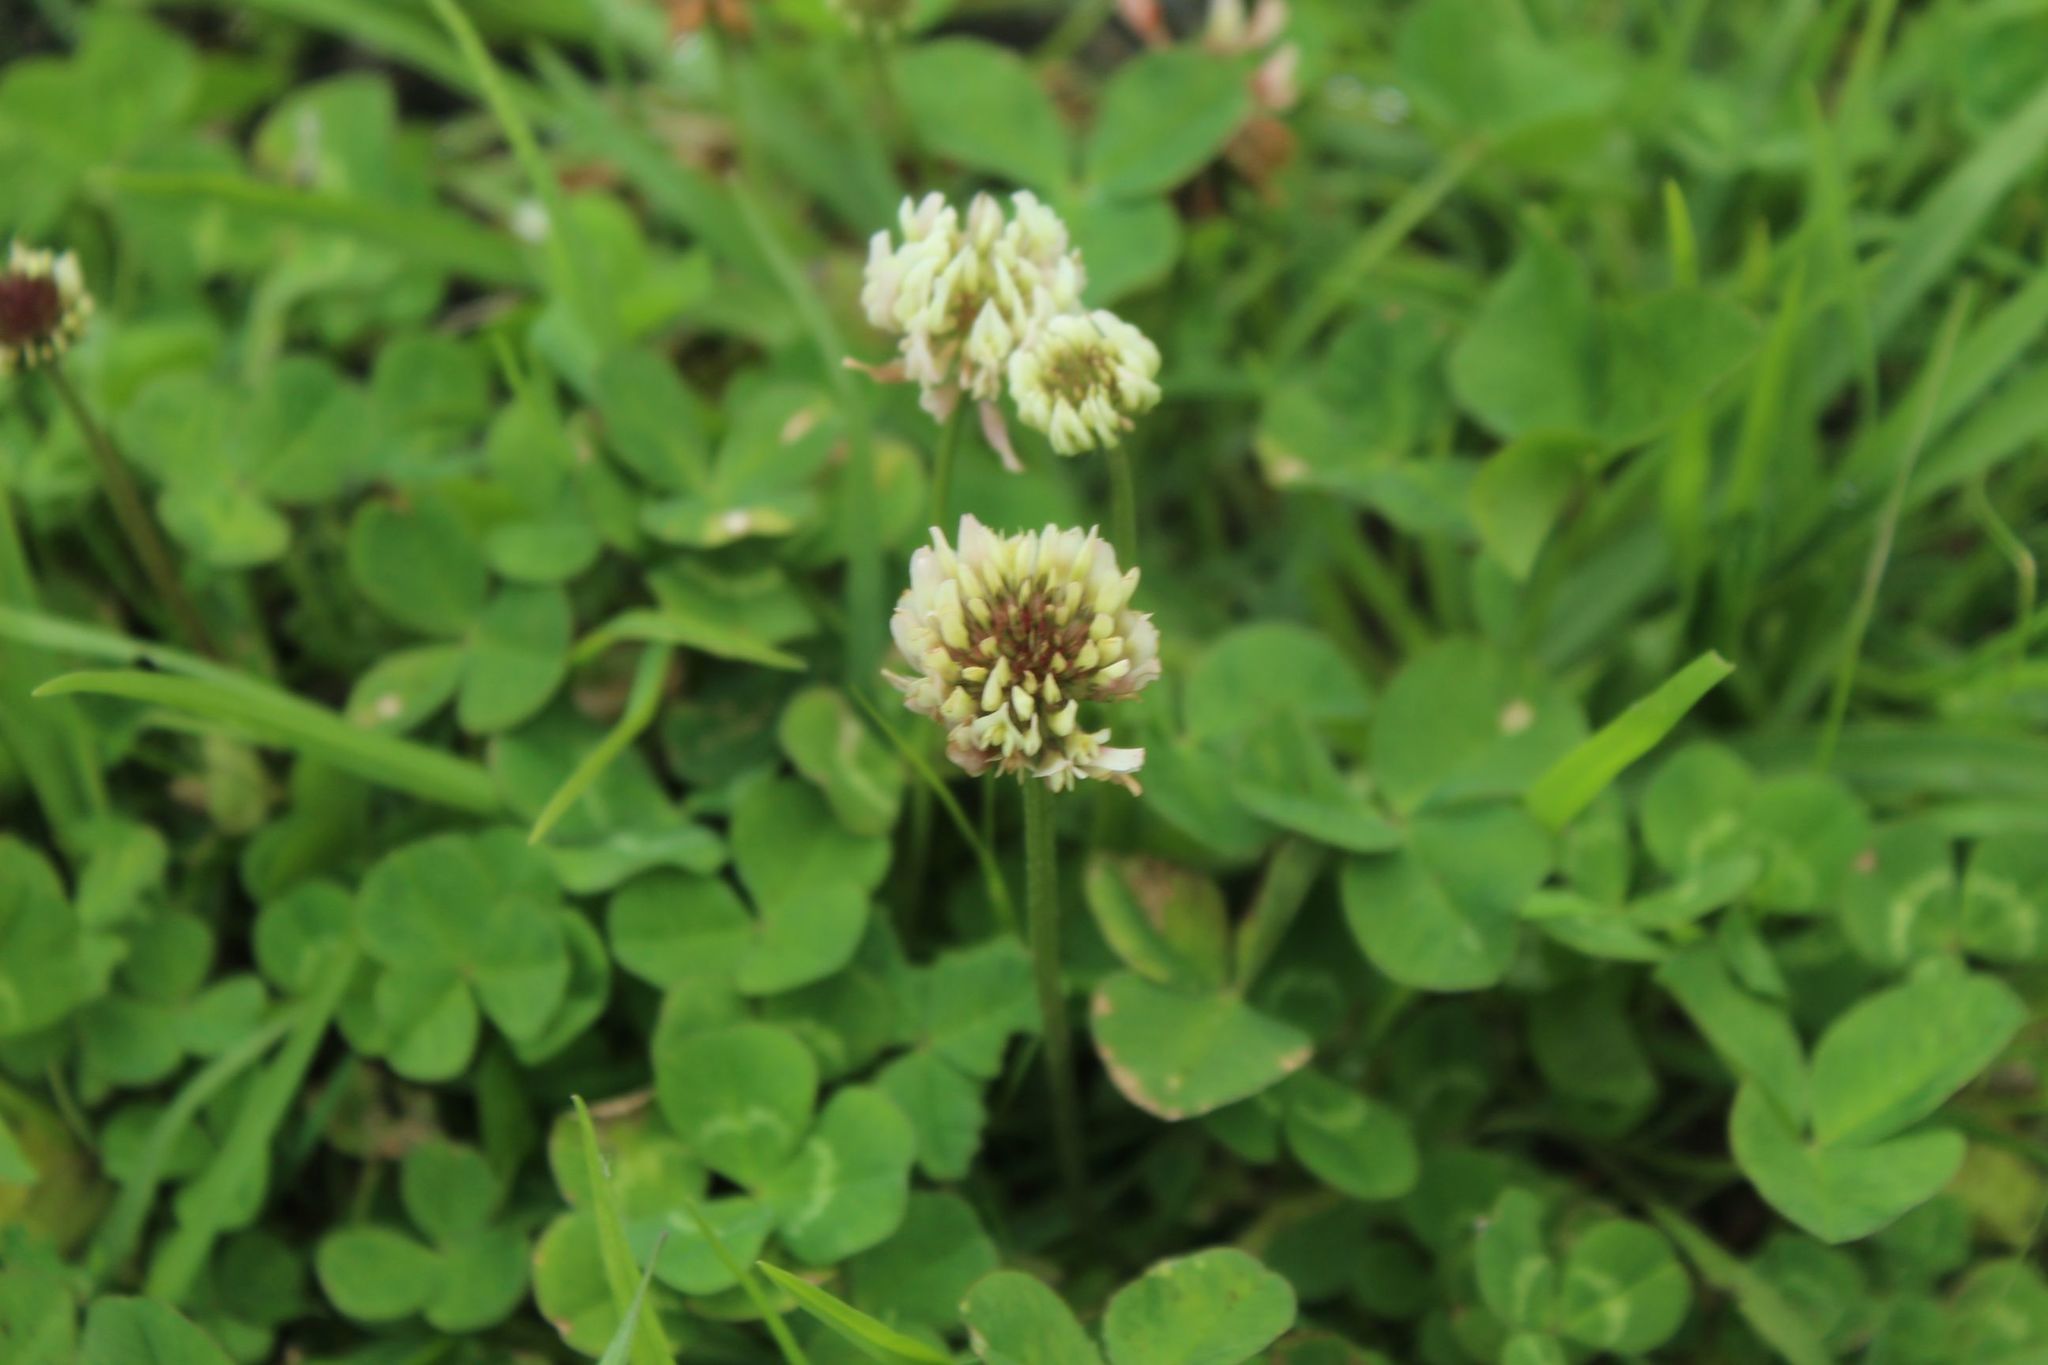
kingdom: Plantae
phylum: Tracheophyta
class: Magnoliopsida
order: Fabales
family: Fabaceae
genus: Trifolium
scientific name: Trifolium repens
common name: White clover
